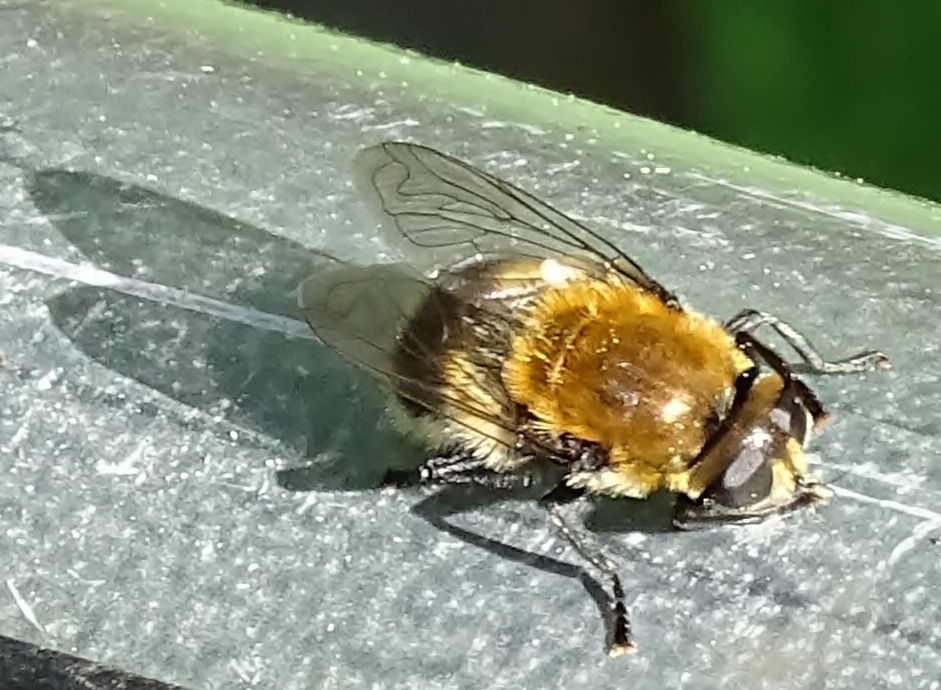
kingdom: Animalia
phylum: Arthropoda
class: Insecta
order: Diptera
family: Syrphidae
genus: Merodon
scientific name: Merodon equestris
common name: Greater bulb-fly
